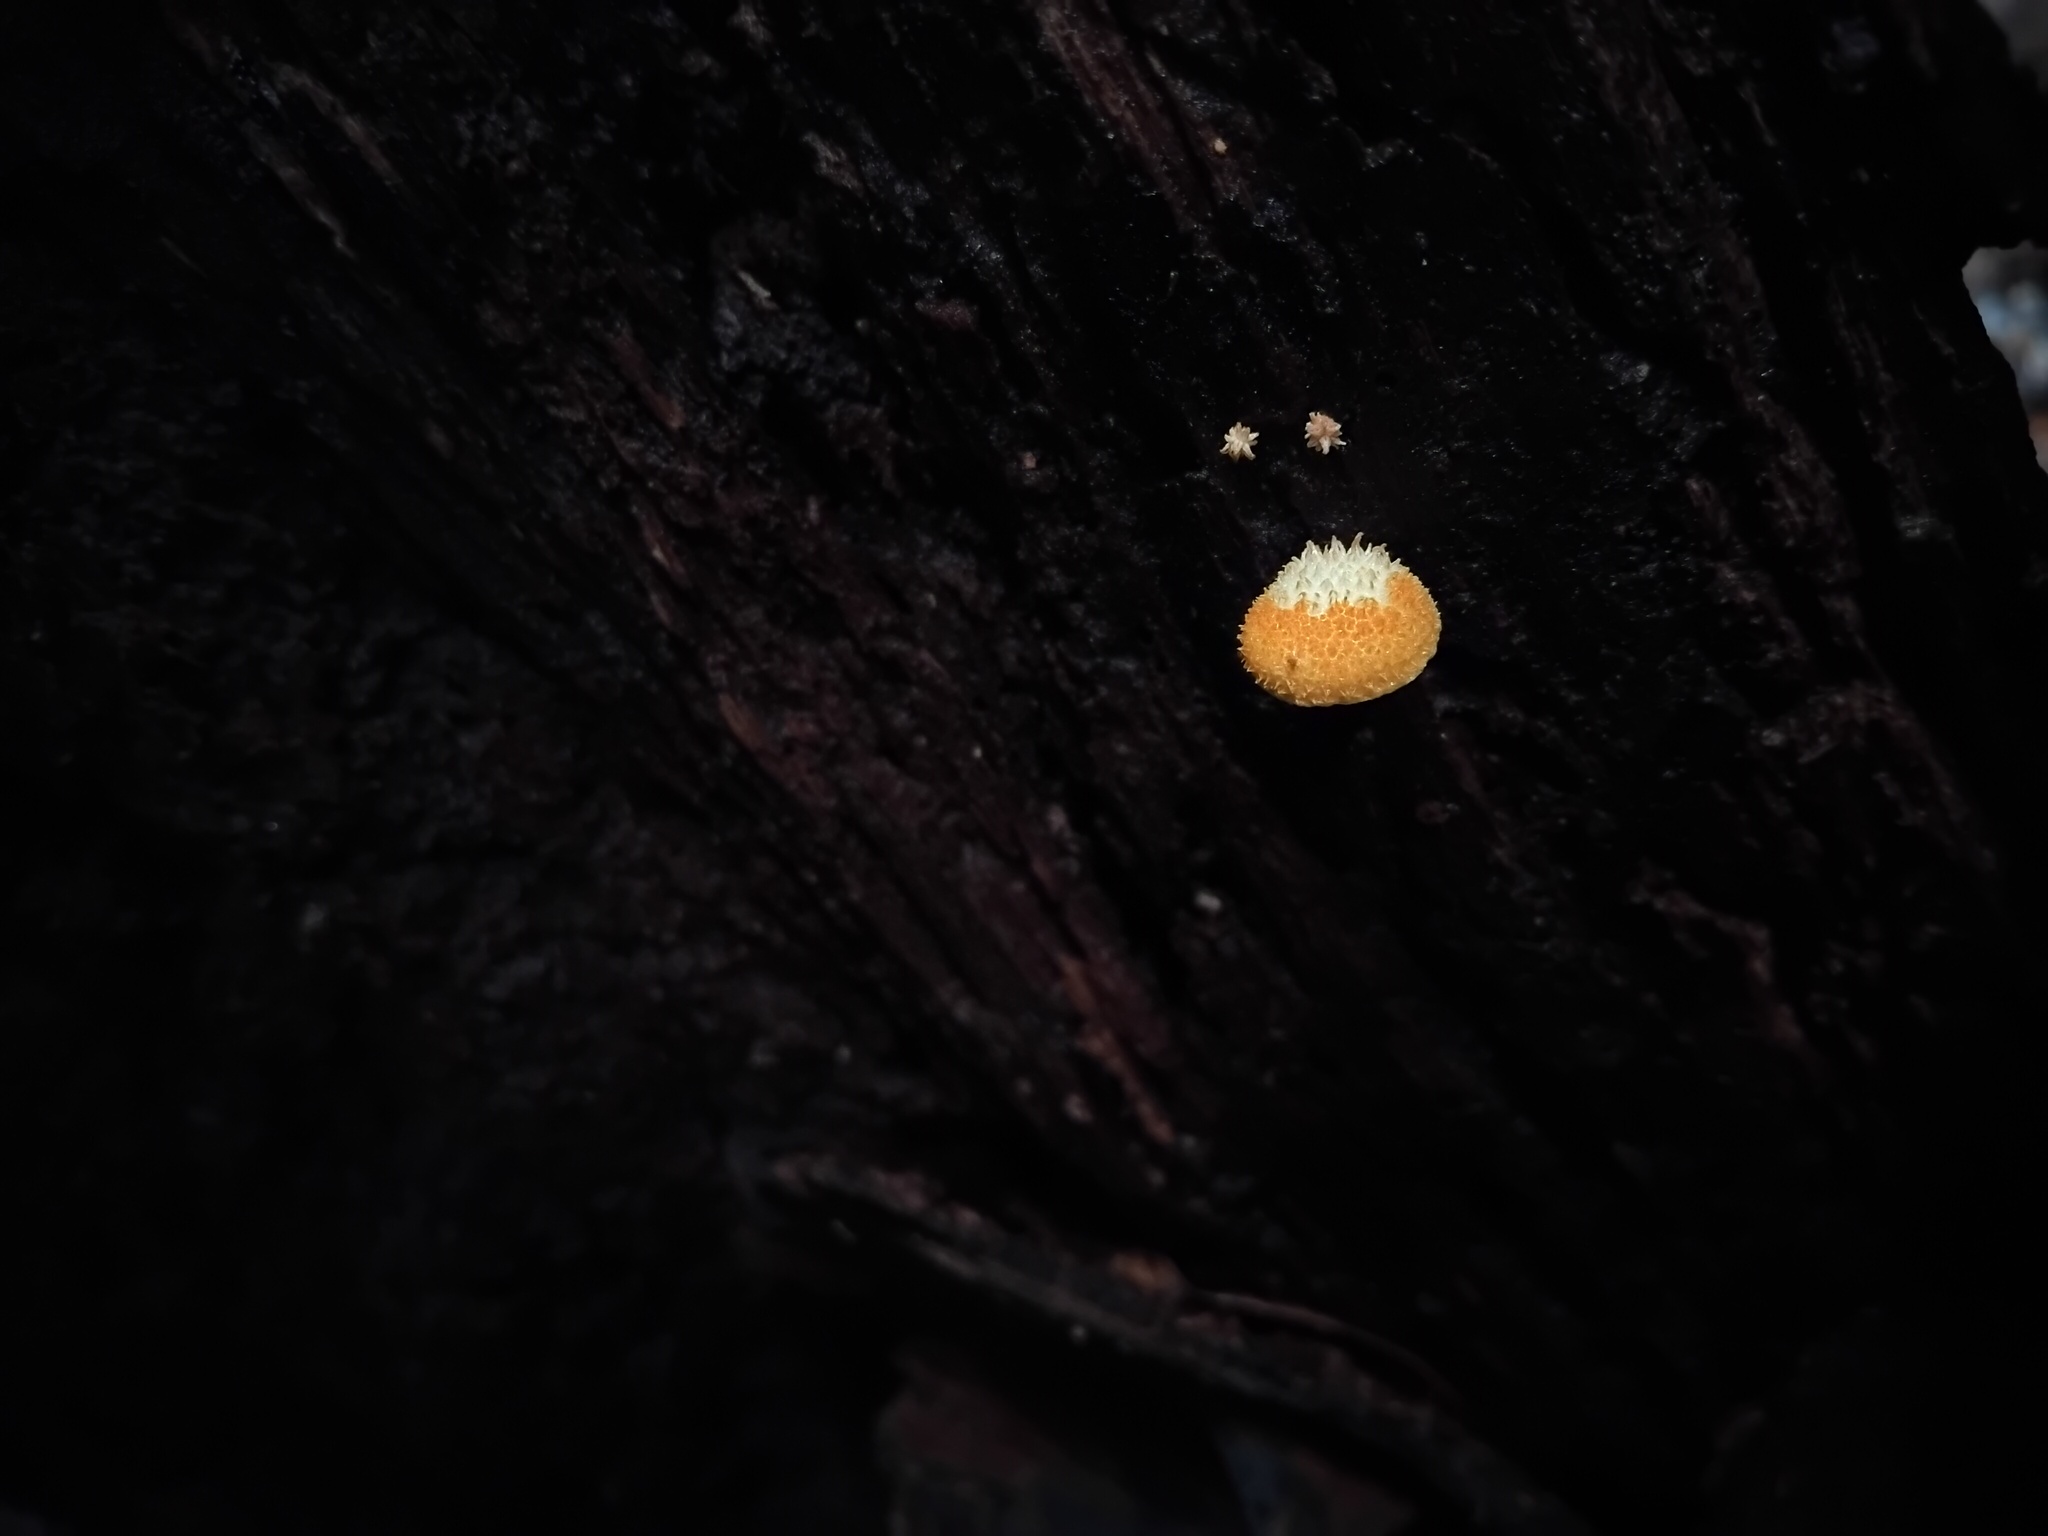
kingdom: Fungi
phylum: Basidiomycota
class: Agaricomycetes
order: Agaricales
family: Physalacriaceae
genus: Cyptotrama
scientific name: Cyptotrama asprata
